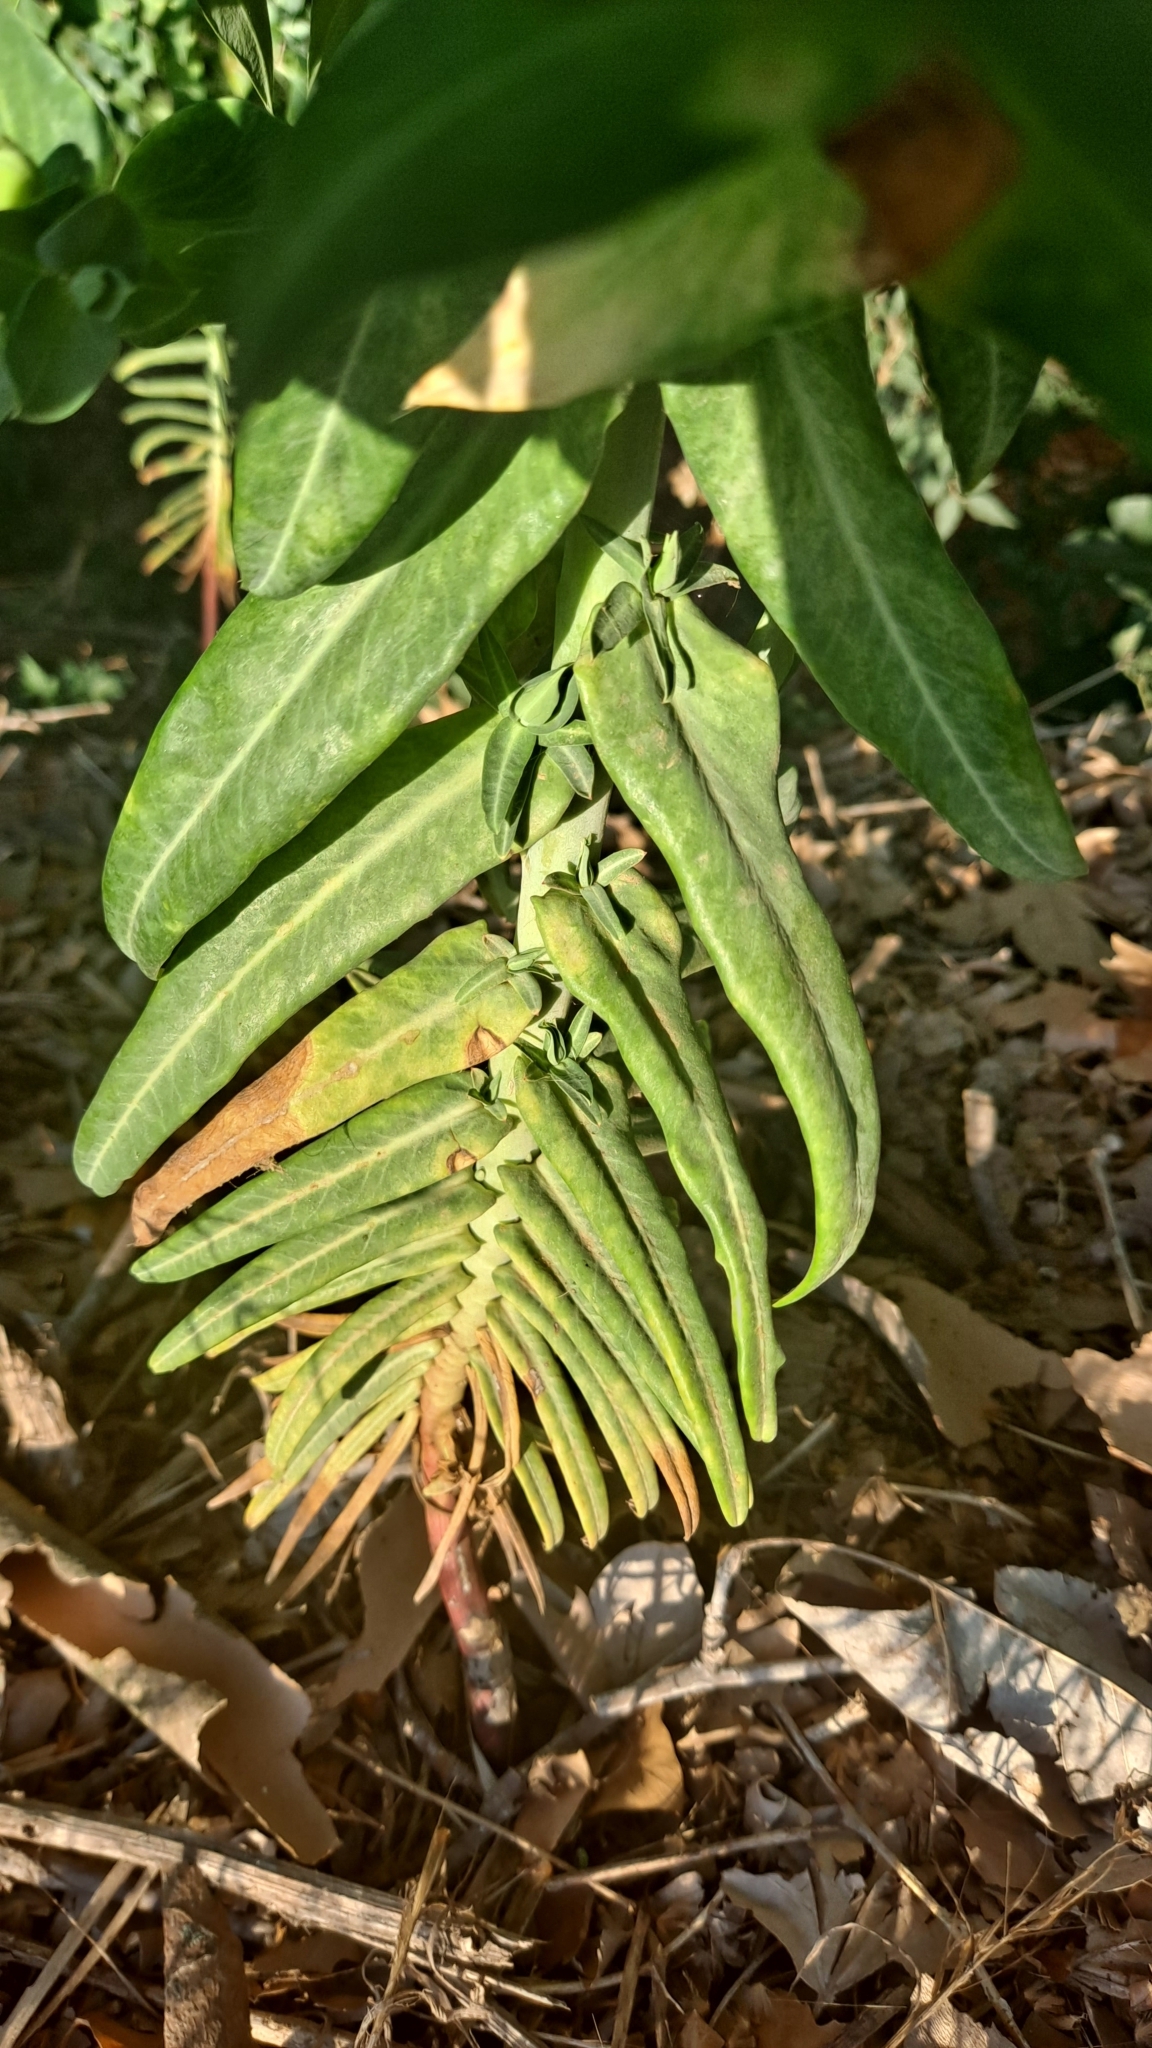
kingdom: Plantae
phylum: Tracheophyta
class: Magnoliopsida
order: Malpighiales
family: Euphorbiaceae
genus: Euphorbia
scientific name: Euphorbia lathyris
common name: Caper spurge
